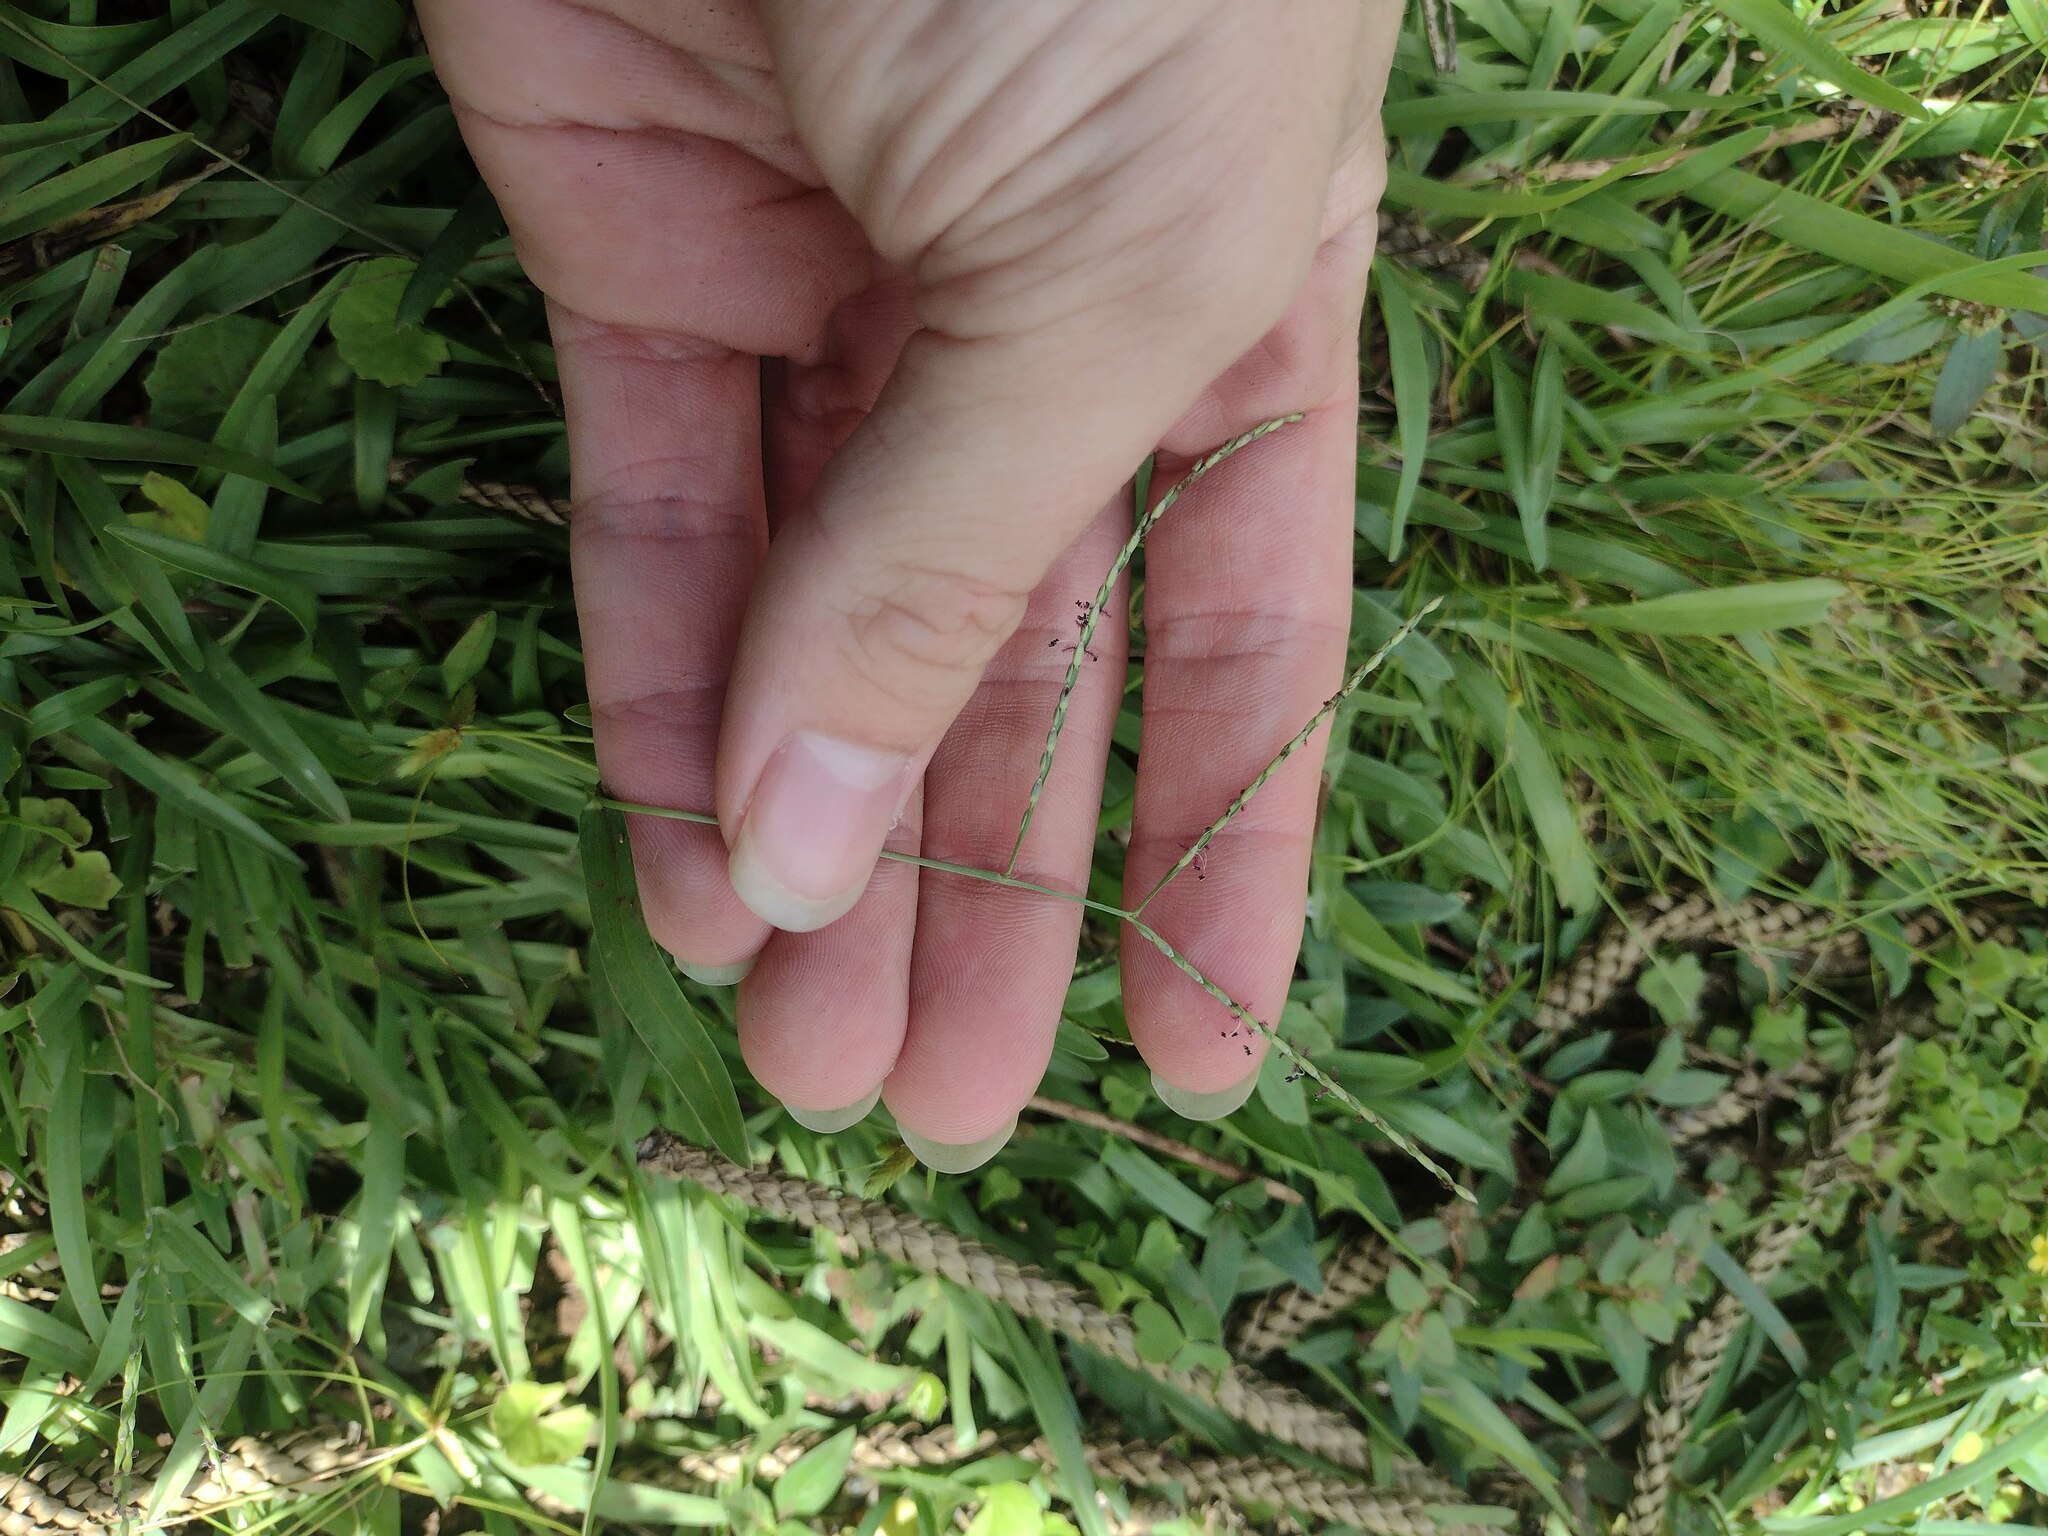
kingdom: Plantae
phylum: Tracheophyta
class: Liliopsida
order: Poales
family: Poaceae
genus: Axonopus
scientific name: Axonopus fissifolius
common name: Common carpetgrass
